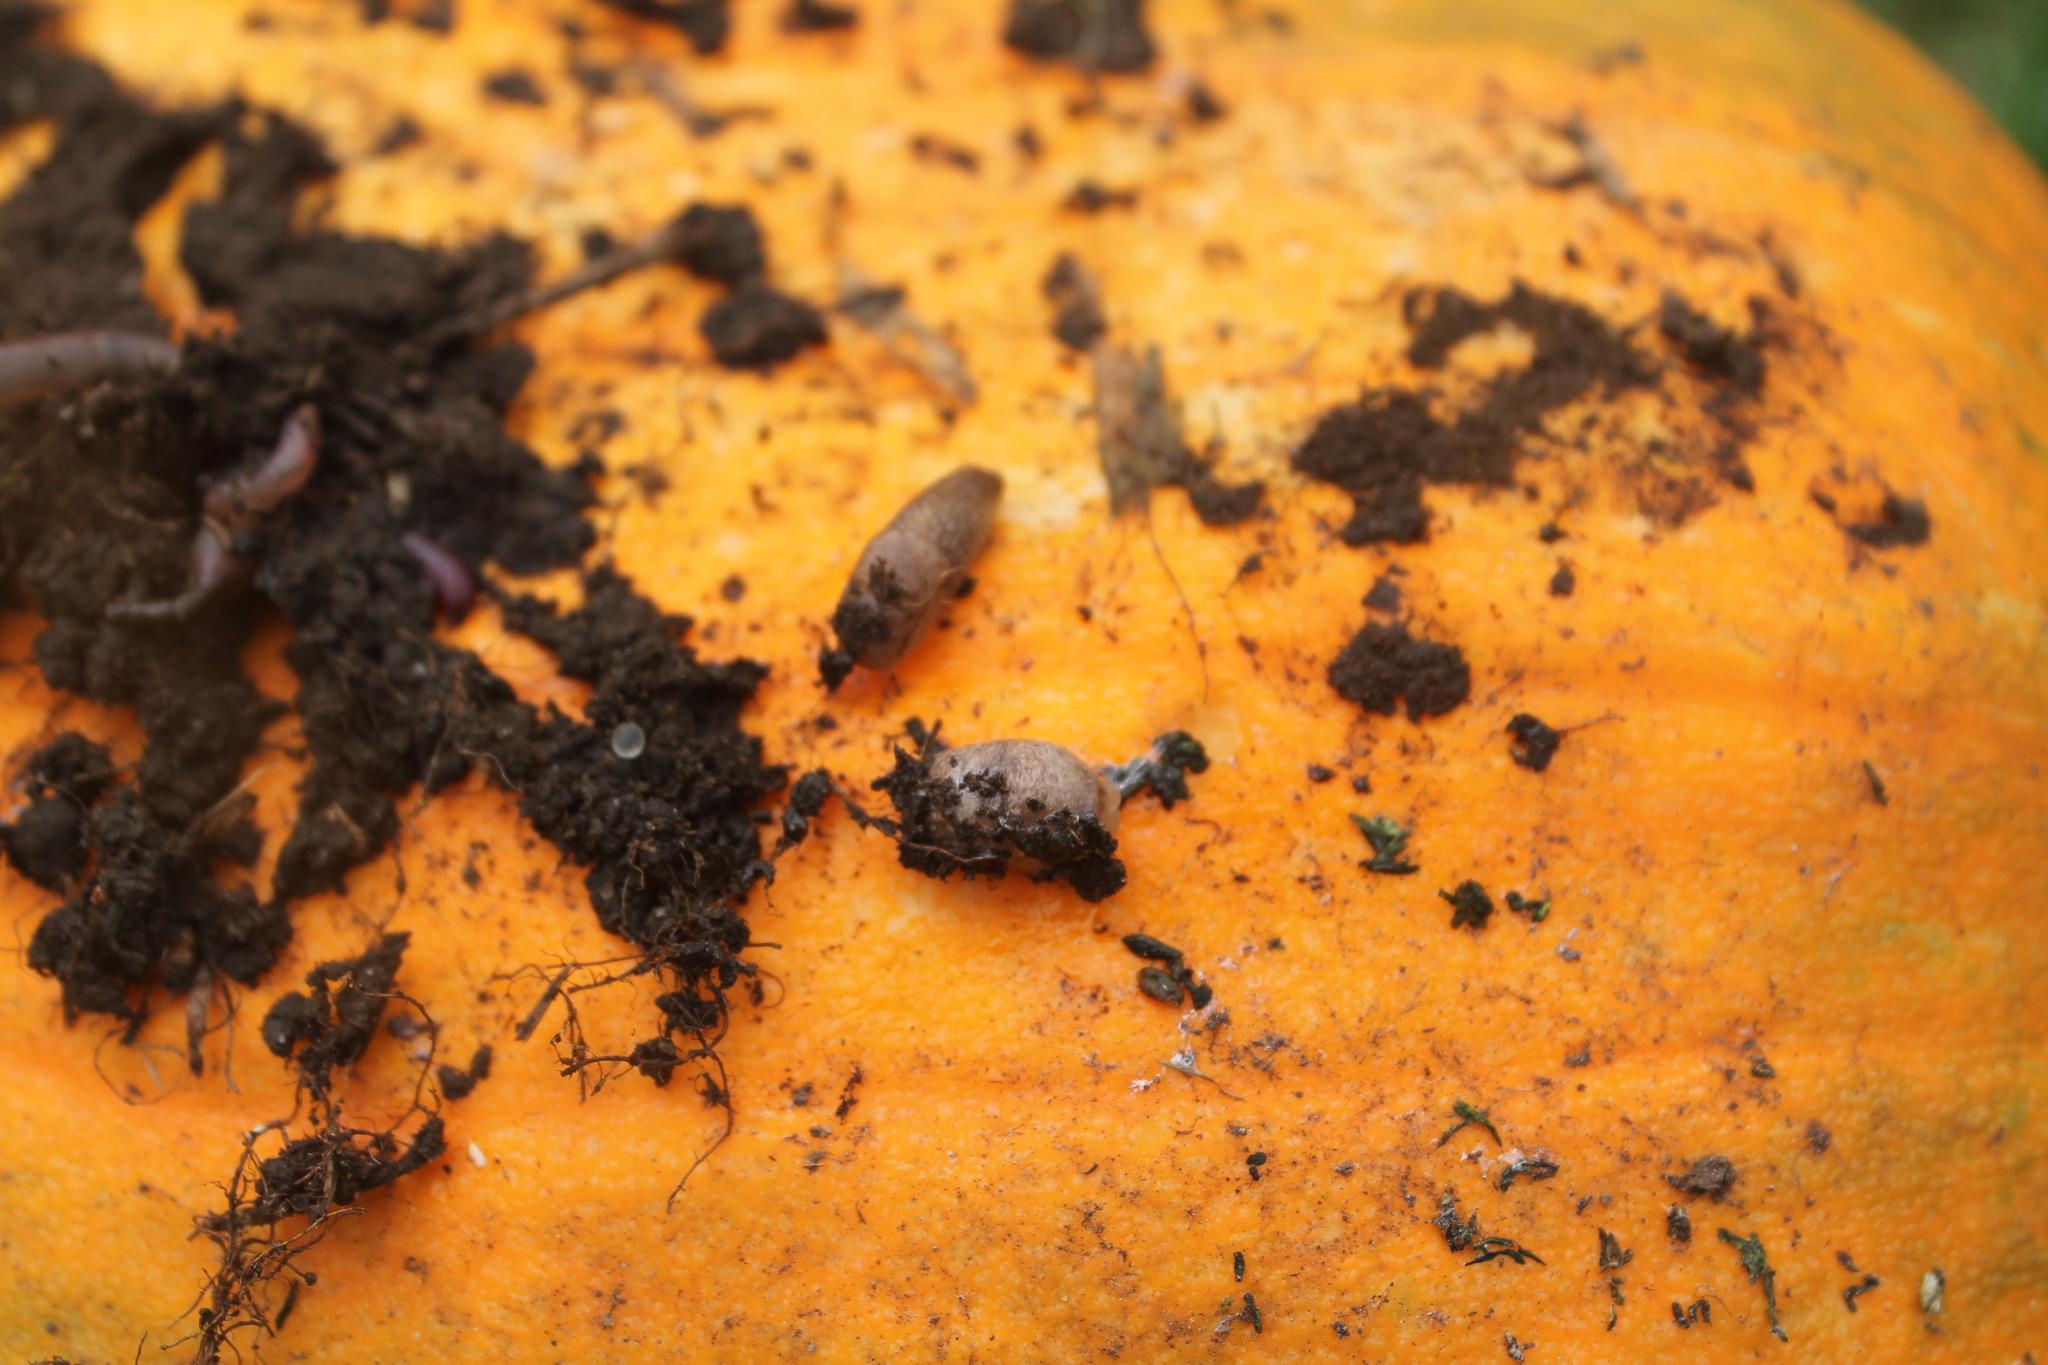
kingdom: Animalia
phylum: Mollusca
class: Gastropoda
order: Stylommatophora
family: Agriolimacidae
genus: Deroceras
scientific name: Deroceras reticulatum
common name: Gray field slug
